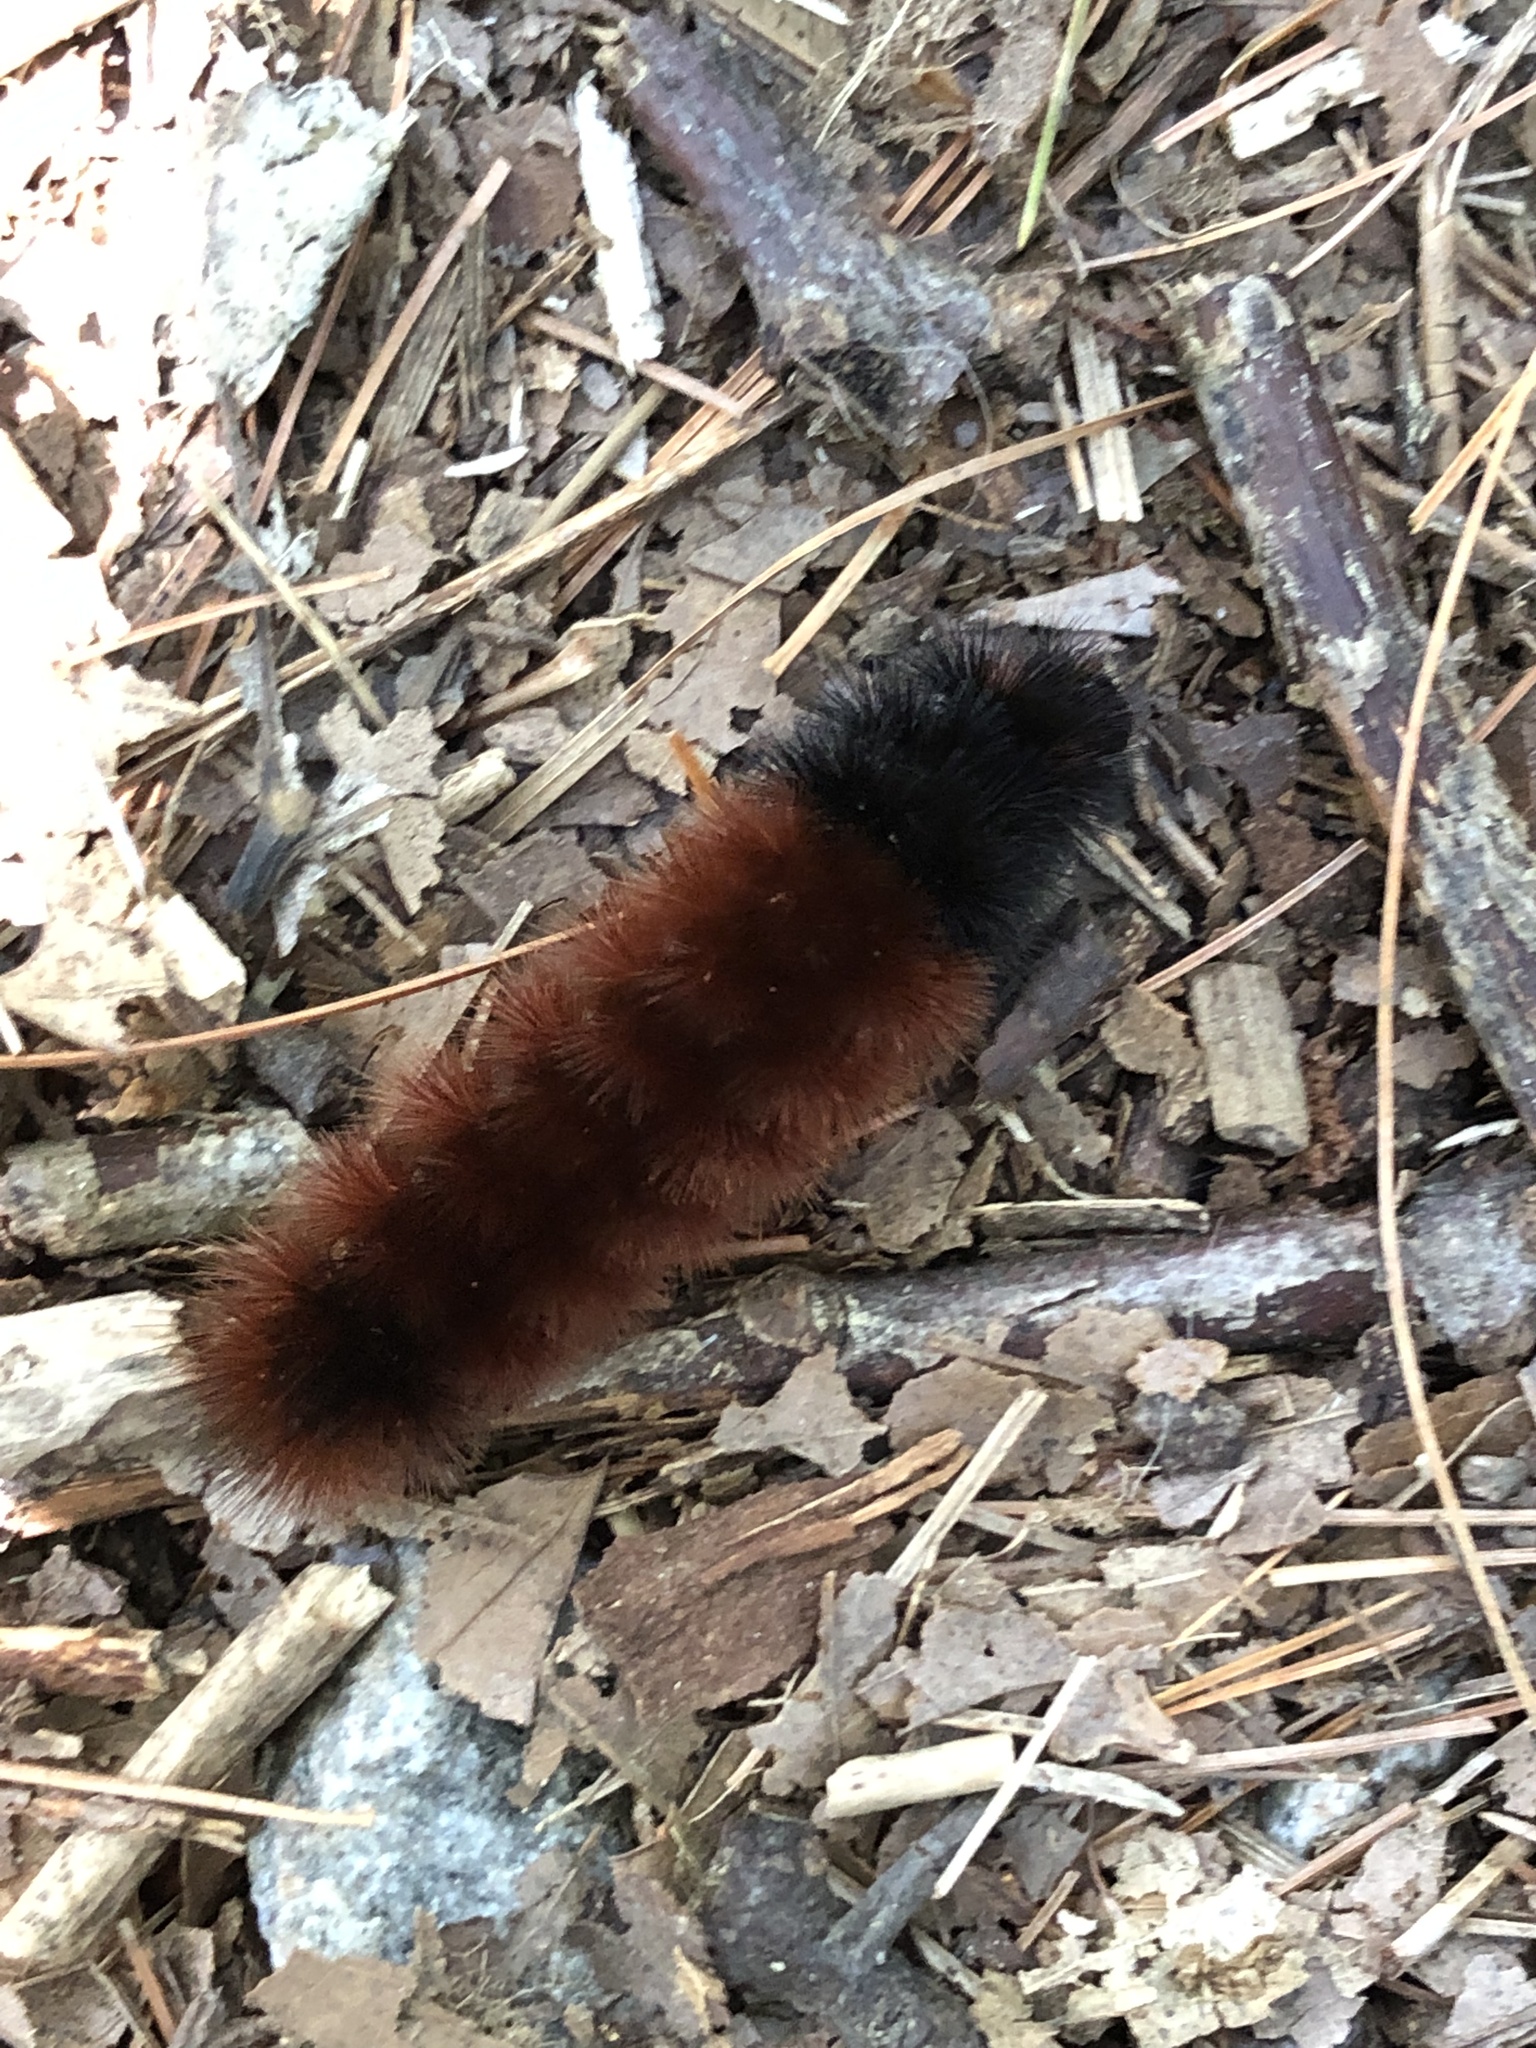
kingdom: Animalia
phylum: Arthropoda
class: Insecta
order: Lepidoptera
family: Erebidae
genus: Pyrrharctia
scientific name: Pyrrharctia isabella
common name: Isabella tiger moth
